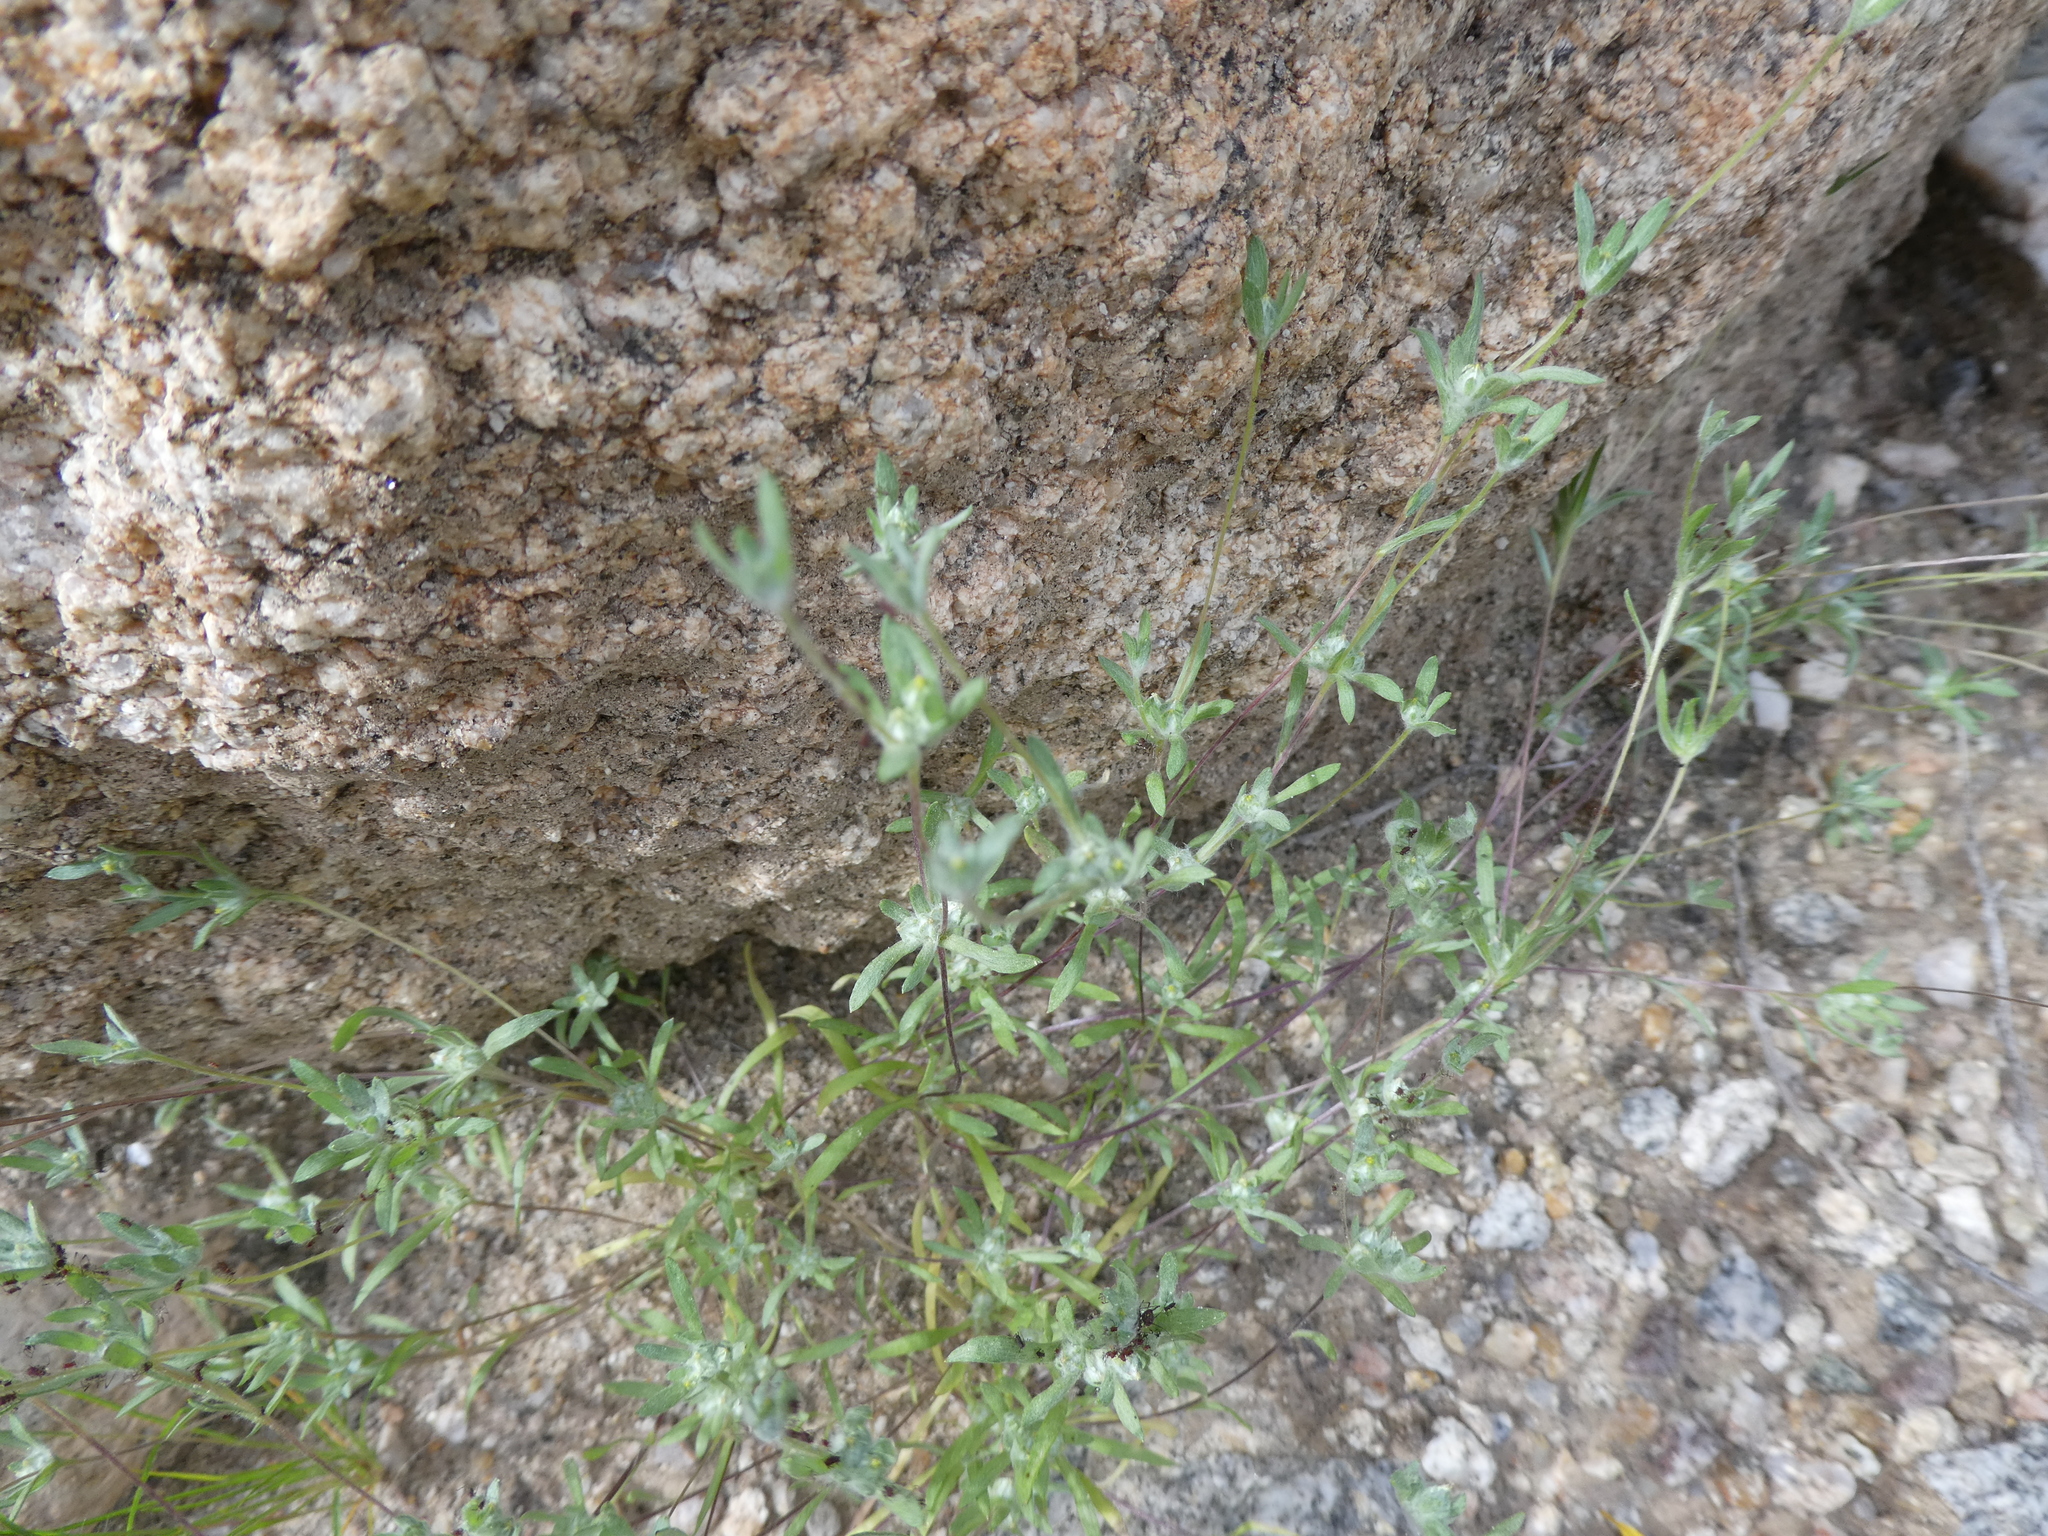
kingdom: Plantae
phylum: Tracheophyta
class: Magnoliopsida
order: Asterales
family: Asteraceae
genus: Logfia
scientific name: Logfia arizonica
